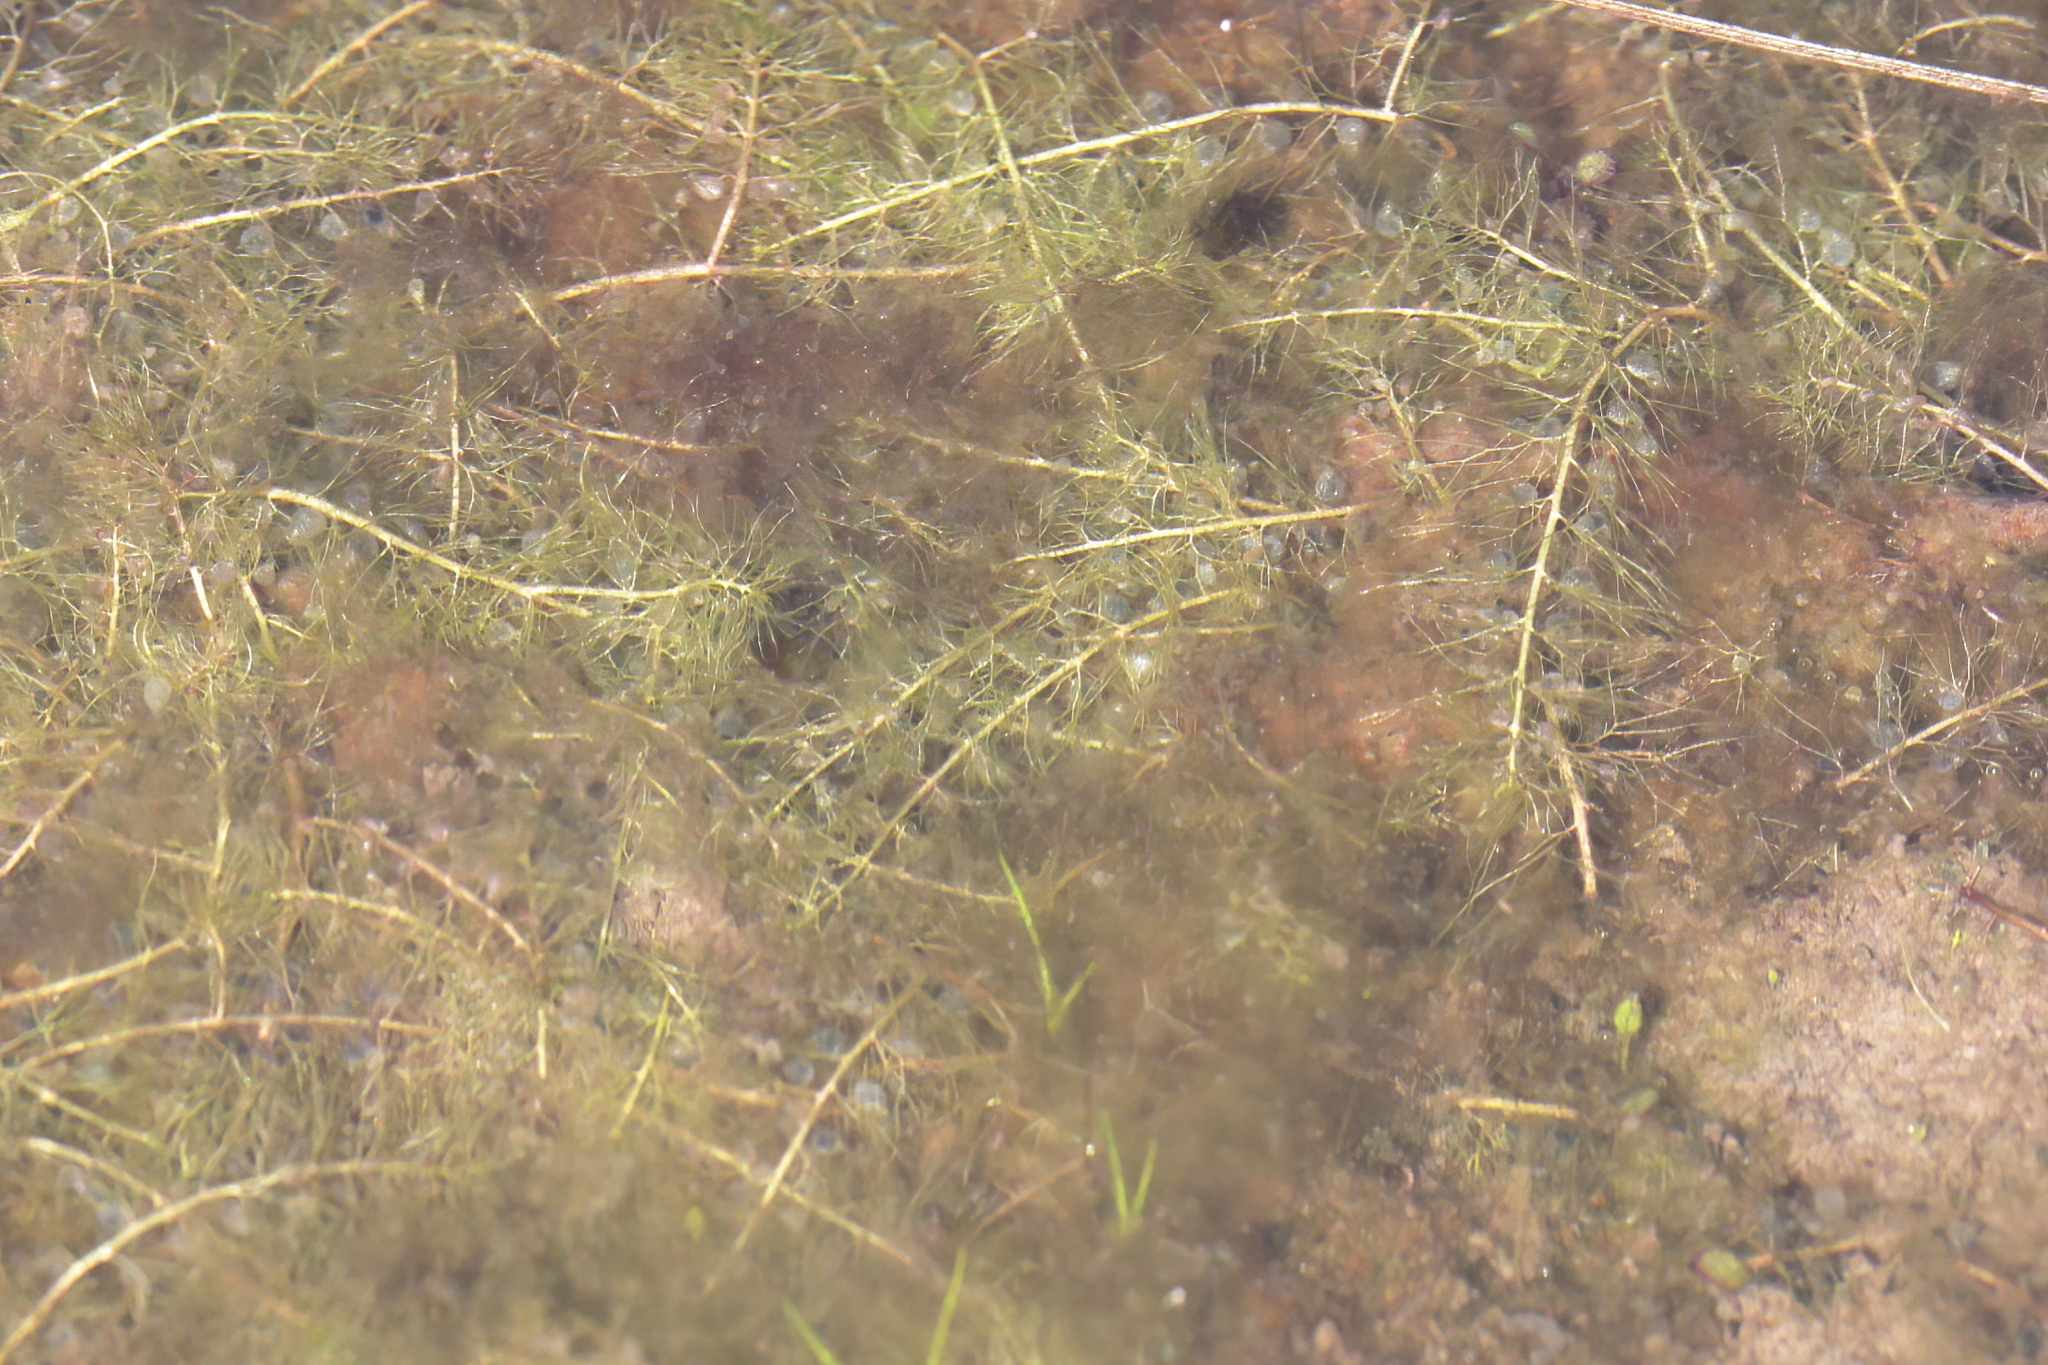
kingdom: Plantae
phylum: Tracheophyta
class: Magnoliopsida
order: Lamiales
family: Lentibulariaceae
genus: Utricularia
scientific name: Utricularia striata
